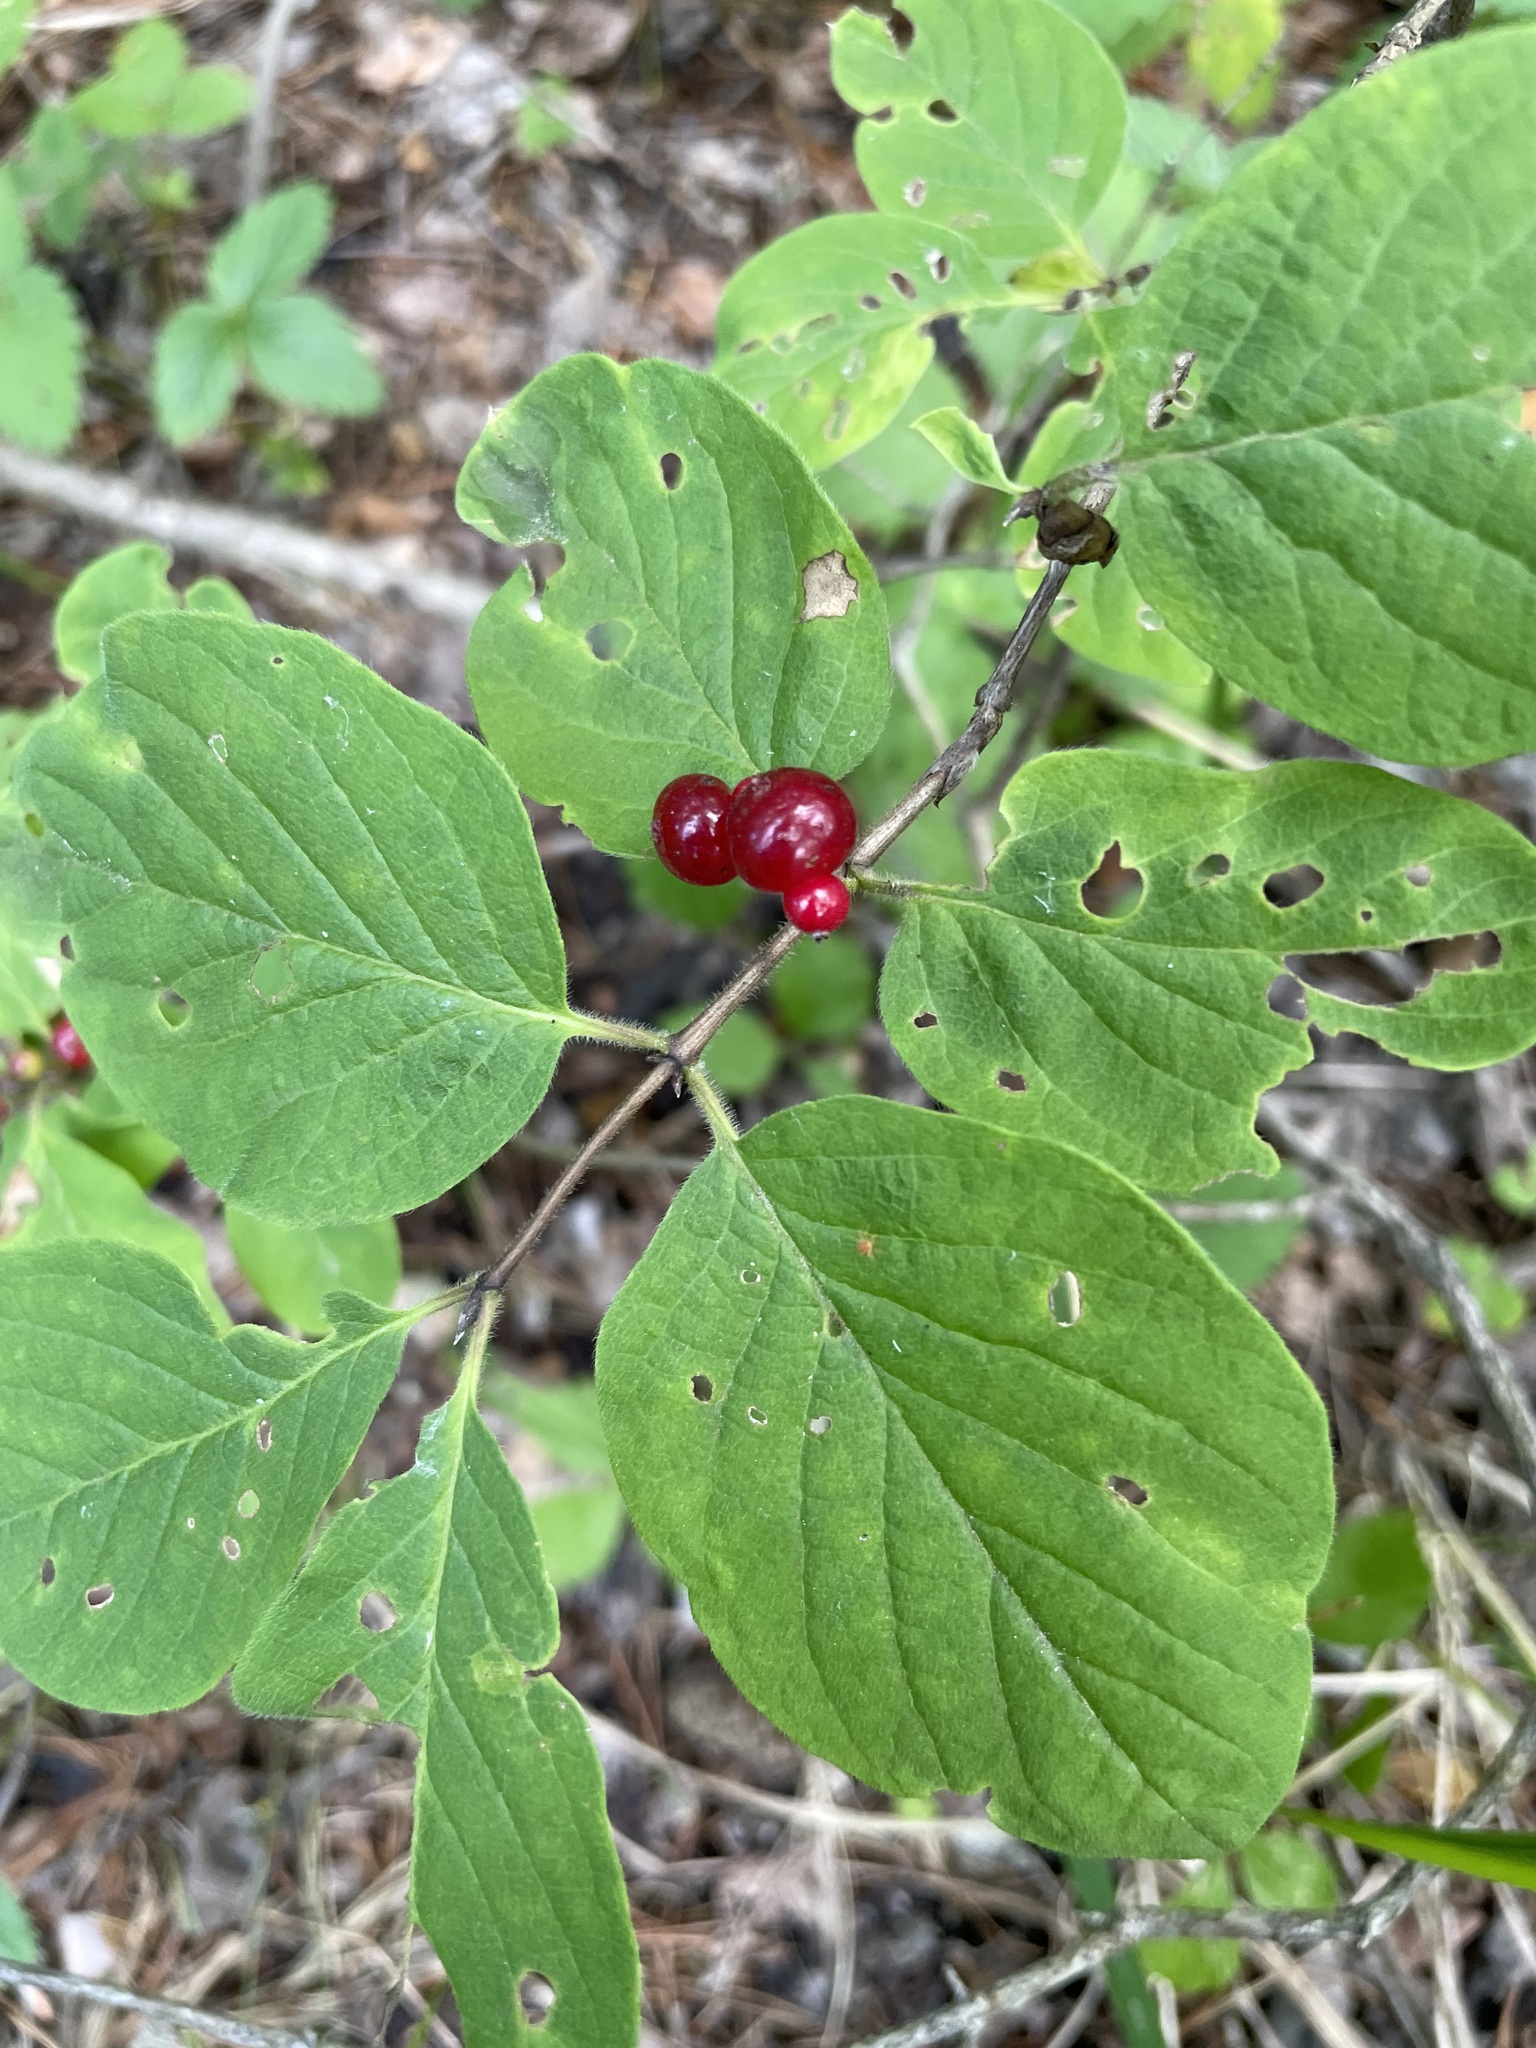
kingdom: Plantae
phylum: Tracheophyta
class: Magnoliopsida
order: Dipsacales
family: Caprifoliaceae
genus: Lonicera
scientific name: Lonicera xylosteum
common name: Fly honeysuckle
